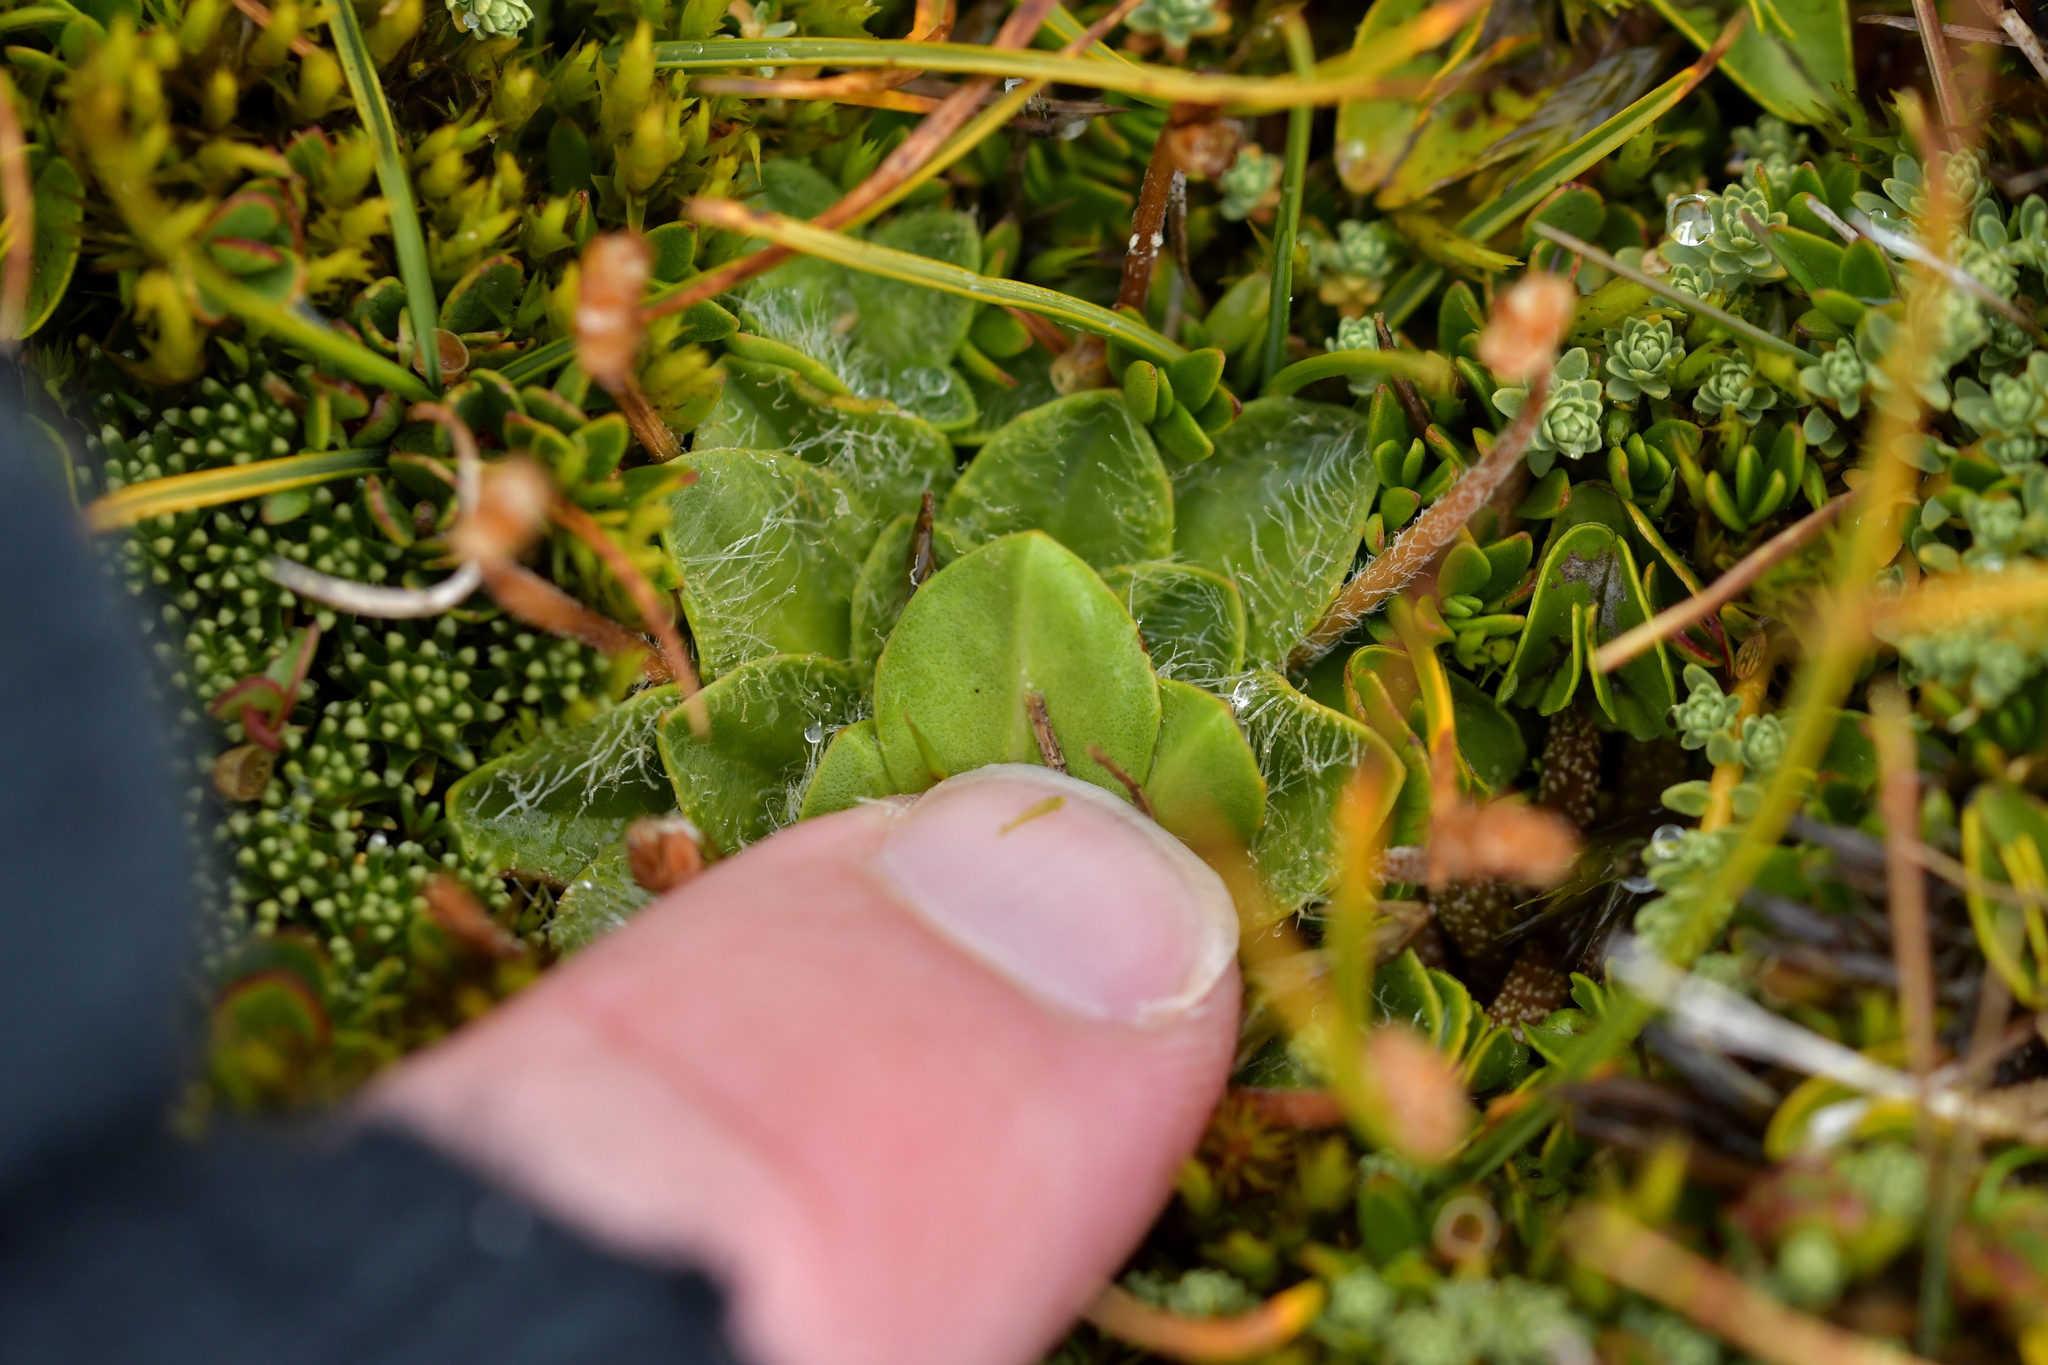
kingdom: Plantae
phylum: Tracheophyta
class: Magnoliopsida
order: Lamiales
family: Plantaginaceae
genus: Plantago
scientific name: Plantago lanigera
